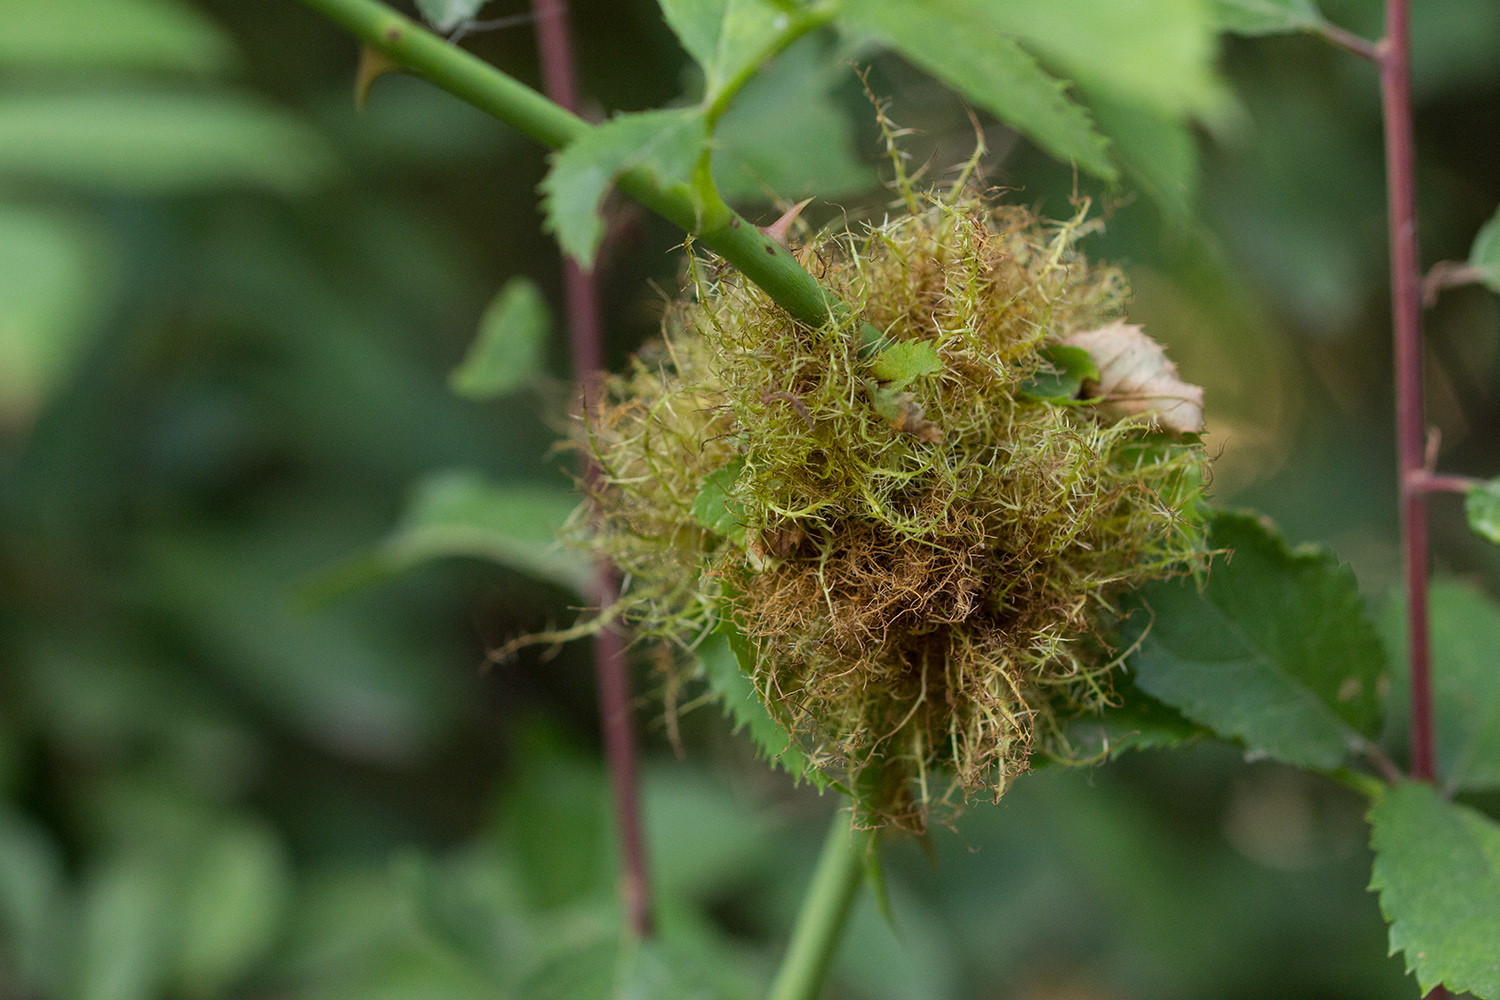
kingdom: Animalia
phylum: Arthropoda
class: Insecta
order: Hymenoptera
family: Cynipidae
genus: Diplolepis
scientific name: Diplolepis rosae
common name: Bedeguar gall
